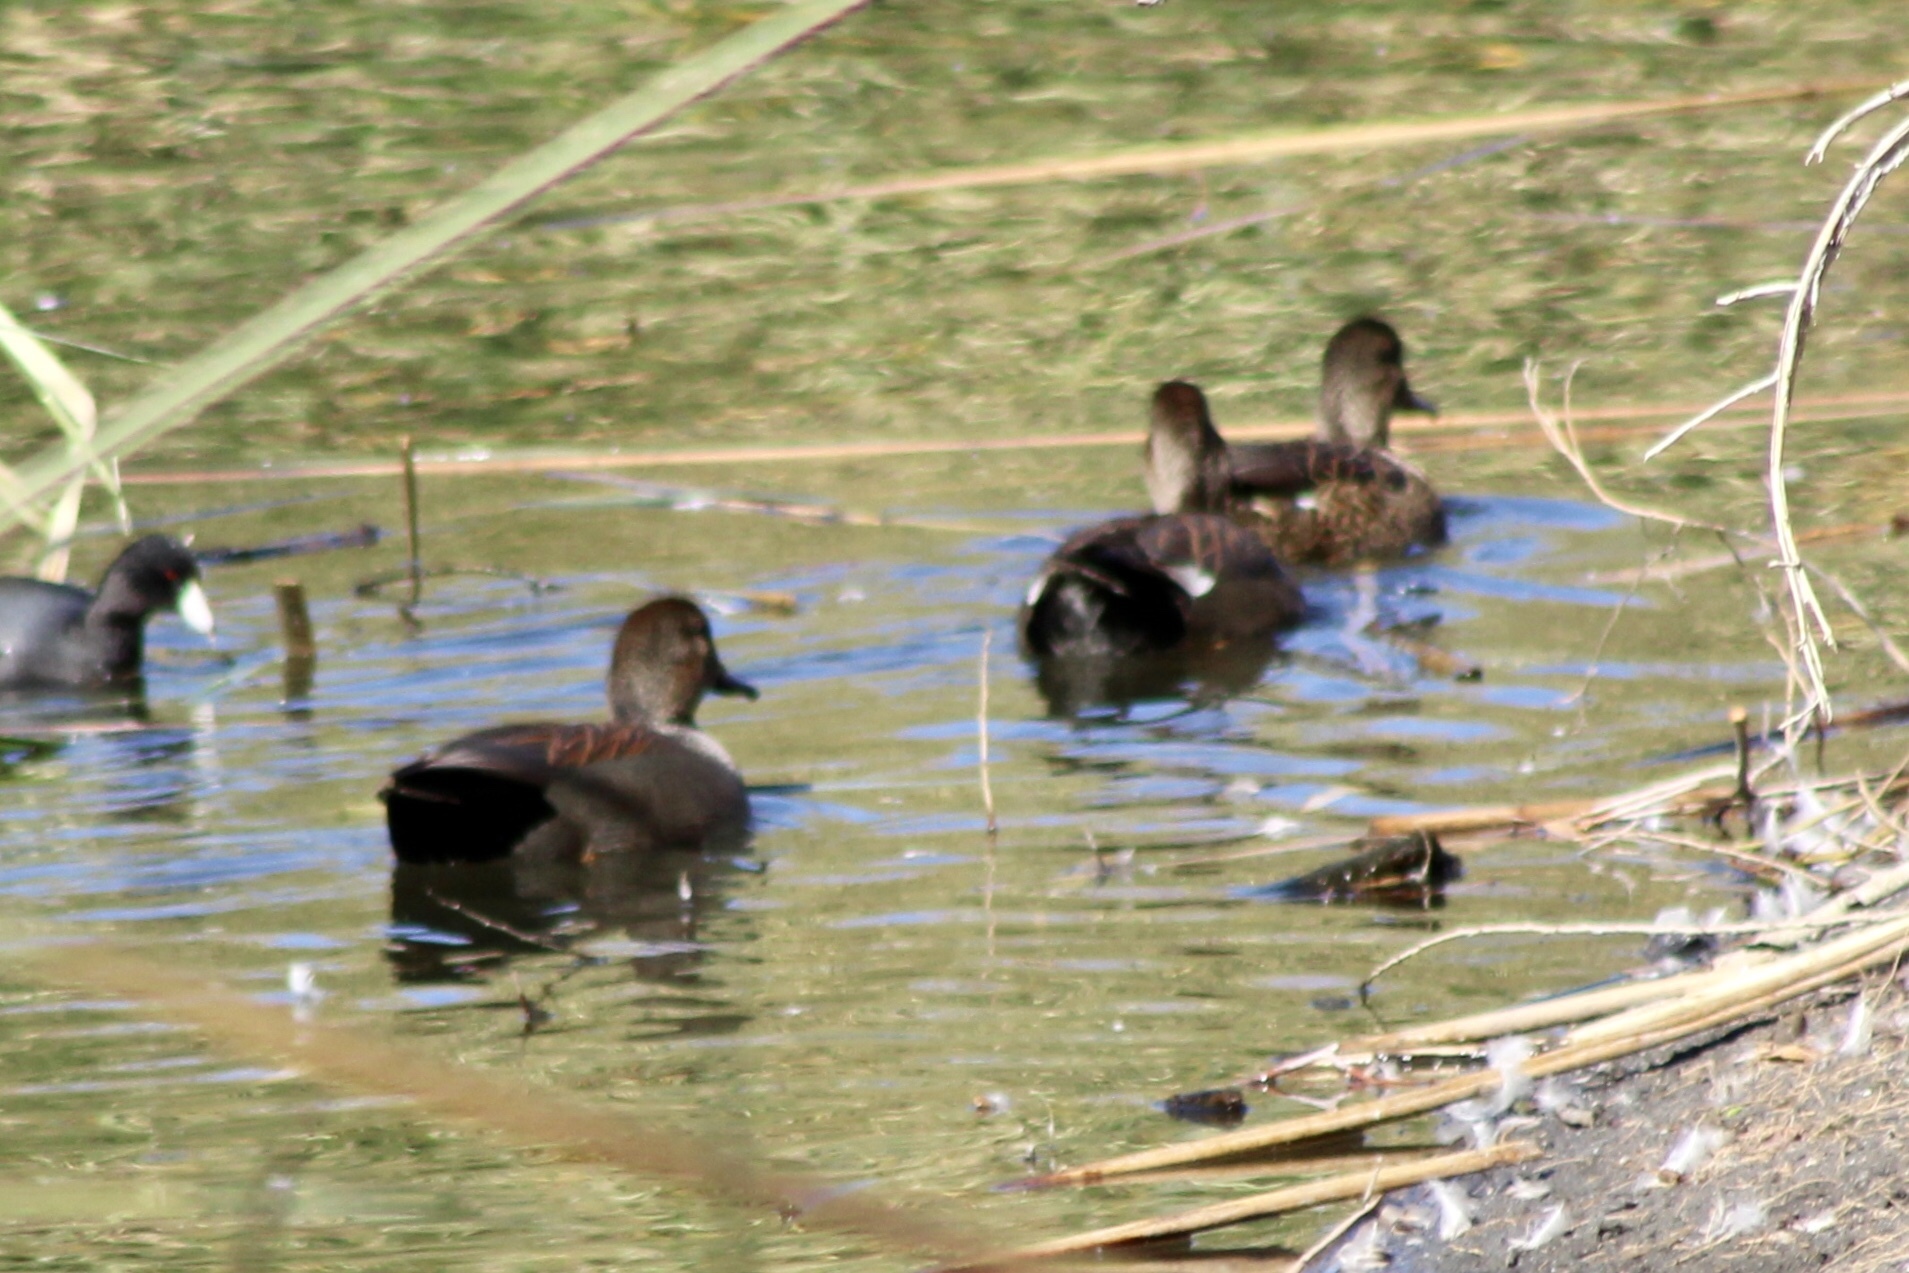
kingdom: Animalia
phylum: Chordata
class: Aves
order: Anseriformes
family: Anatidae
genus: Mareca
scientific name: Mareca strepera
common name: Gadwall
